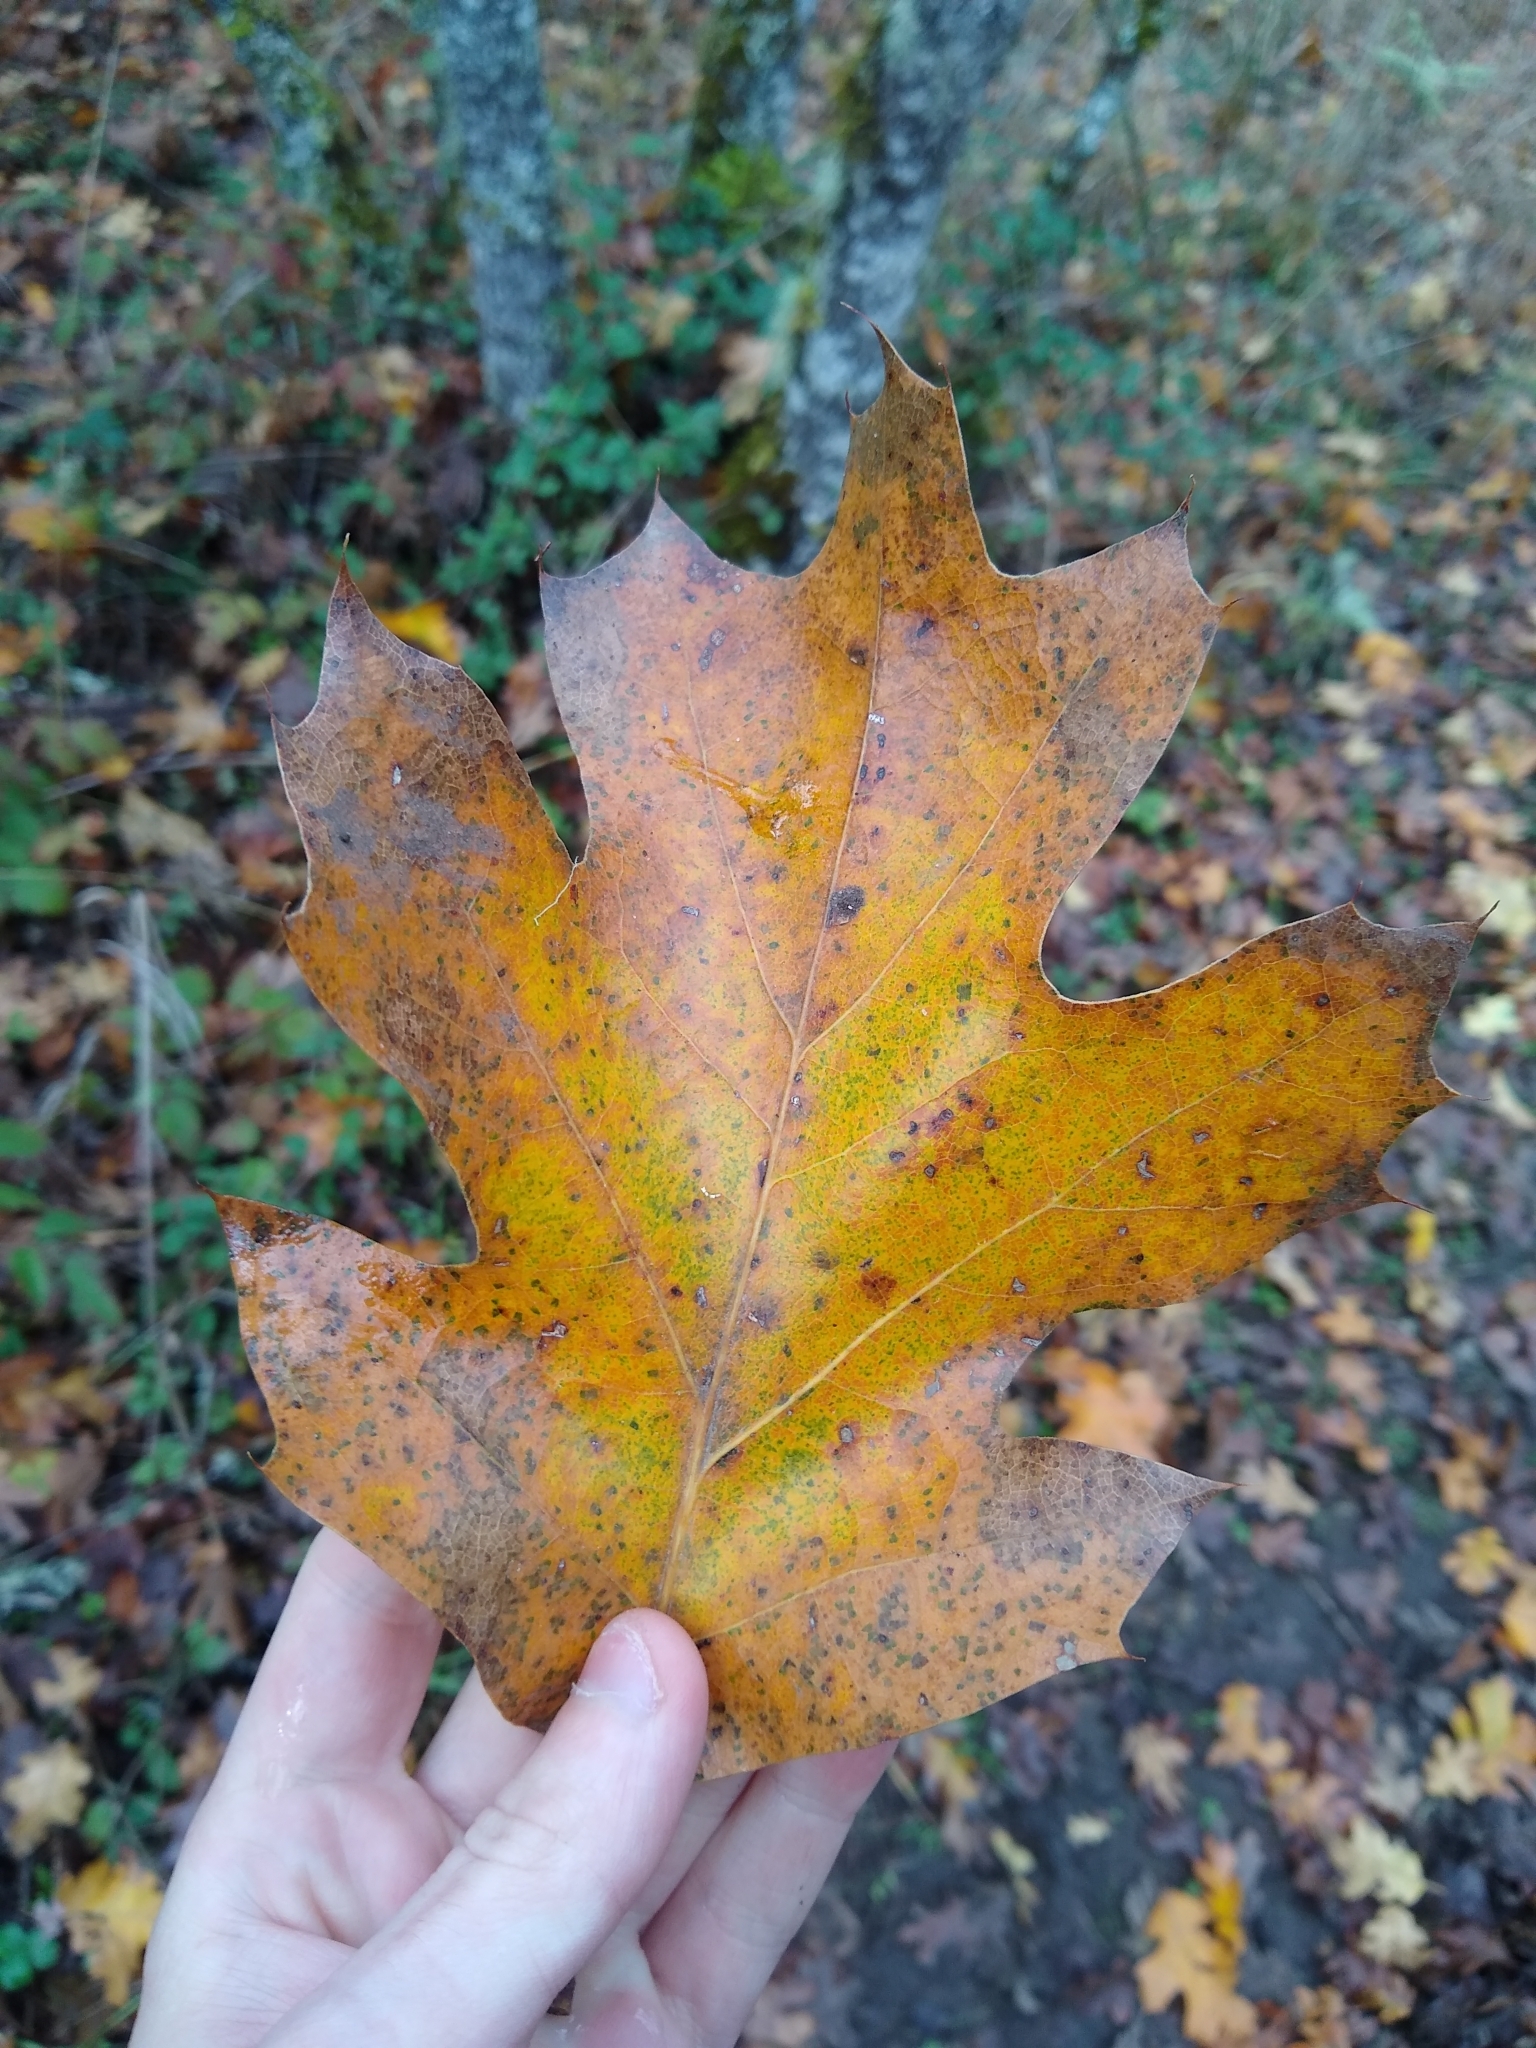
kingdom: Plantae
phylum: Tracheophyta
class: Magnoliopsida
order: Fagales
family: Fagaceae
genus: Quercus
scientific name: Quercus kelloggii
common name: California black oak
